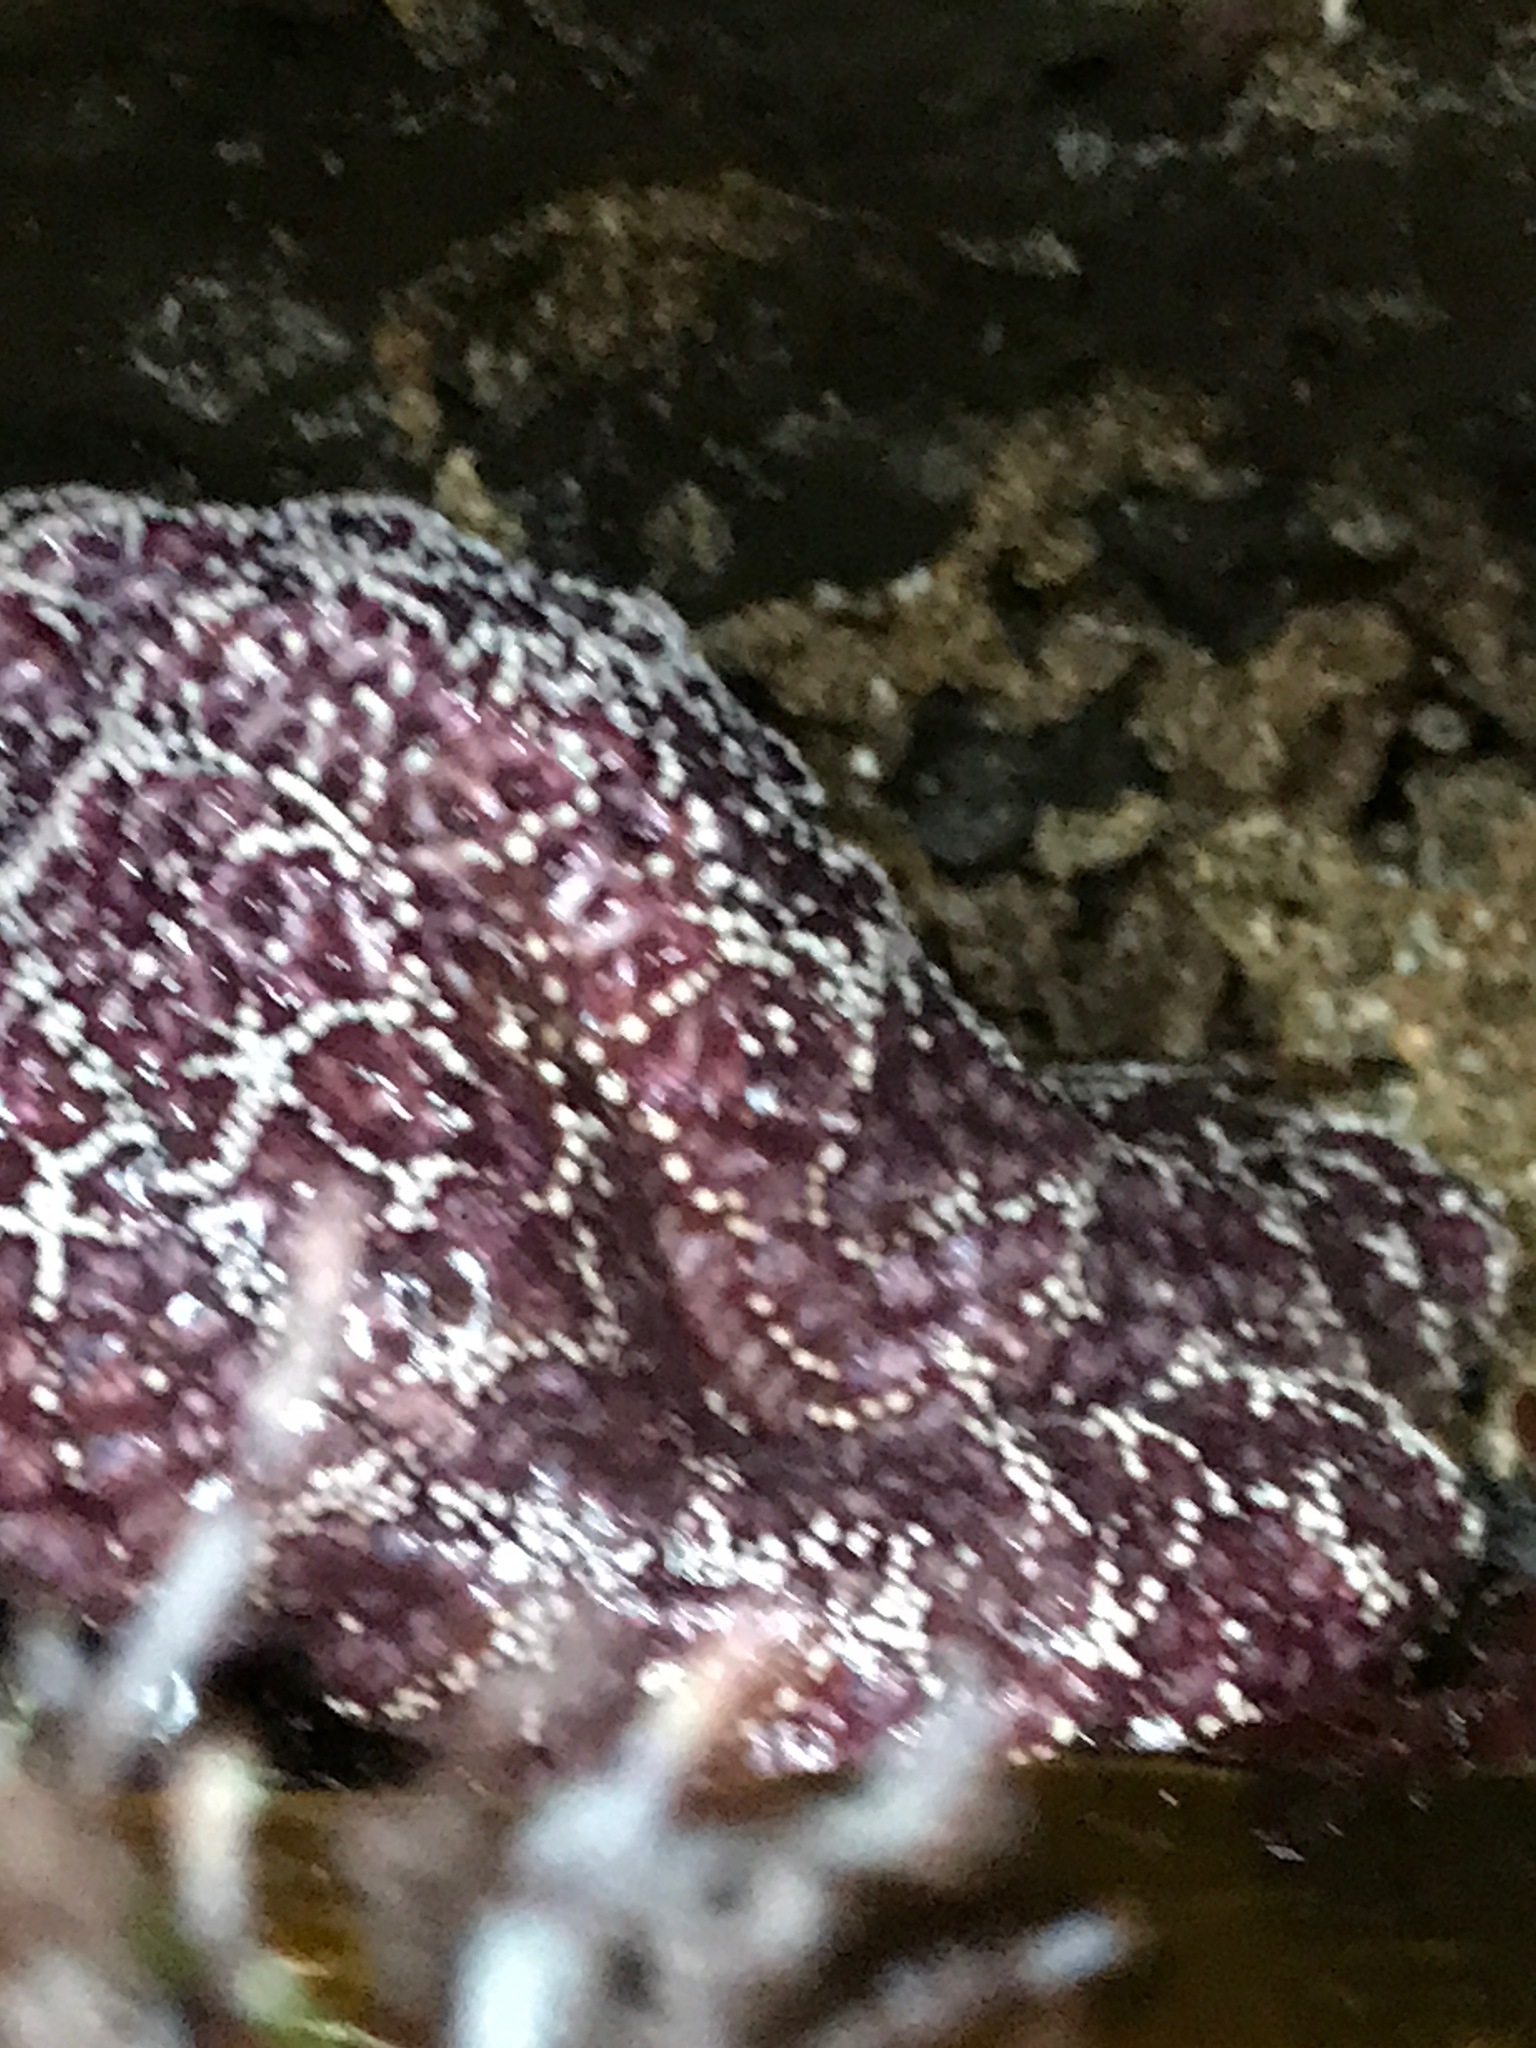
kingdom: Animalia
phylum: Echinodermata
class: Asteroidea
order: Forcipulatida
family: Asteriidae
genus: Pisaster
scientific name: Pisaster ochraceus
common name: Ochre stars
